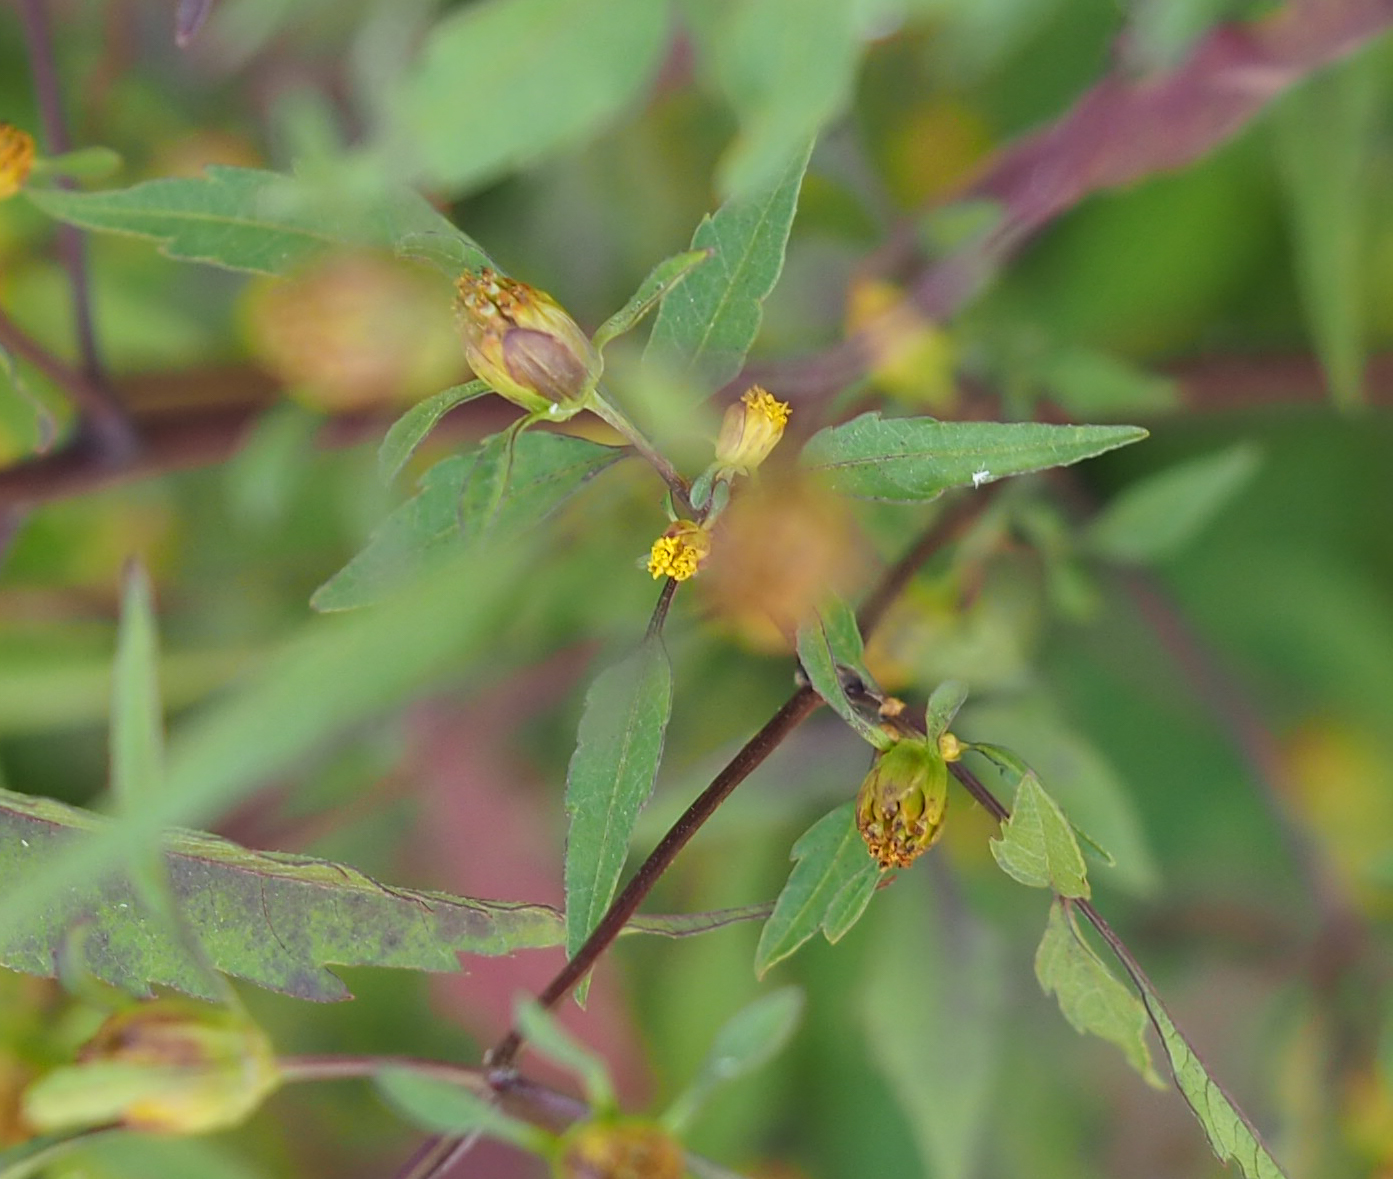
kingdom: Plantae
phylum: Tracheophyta
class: Magnoliopsida
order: Asterales
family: Asteraceae
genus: Bidens
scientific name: Bidens discoidea
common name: Discoide beggarticks
